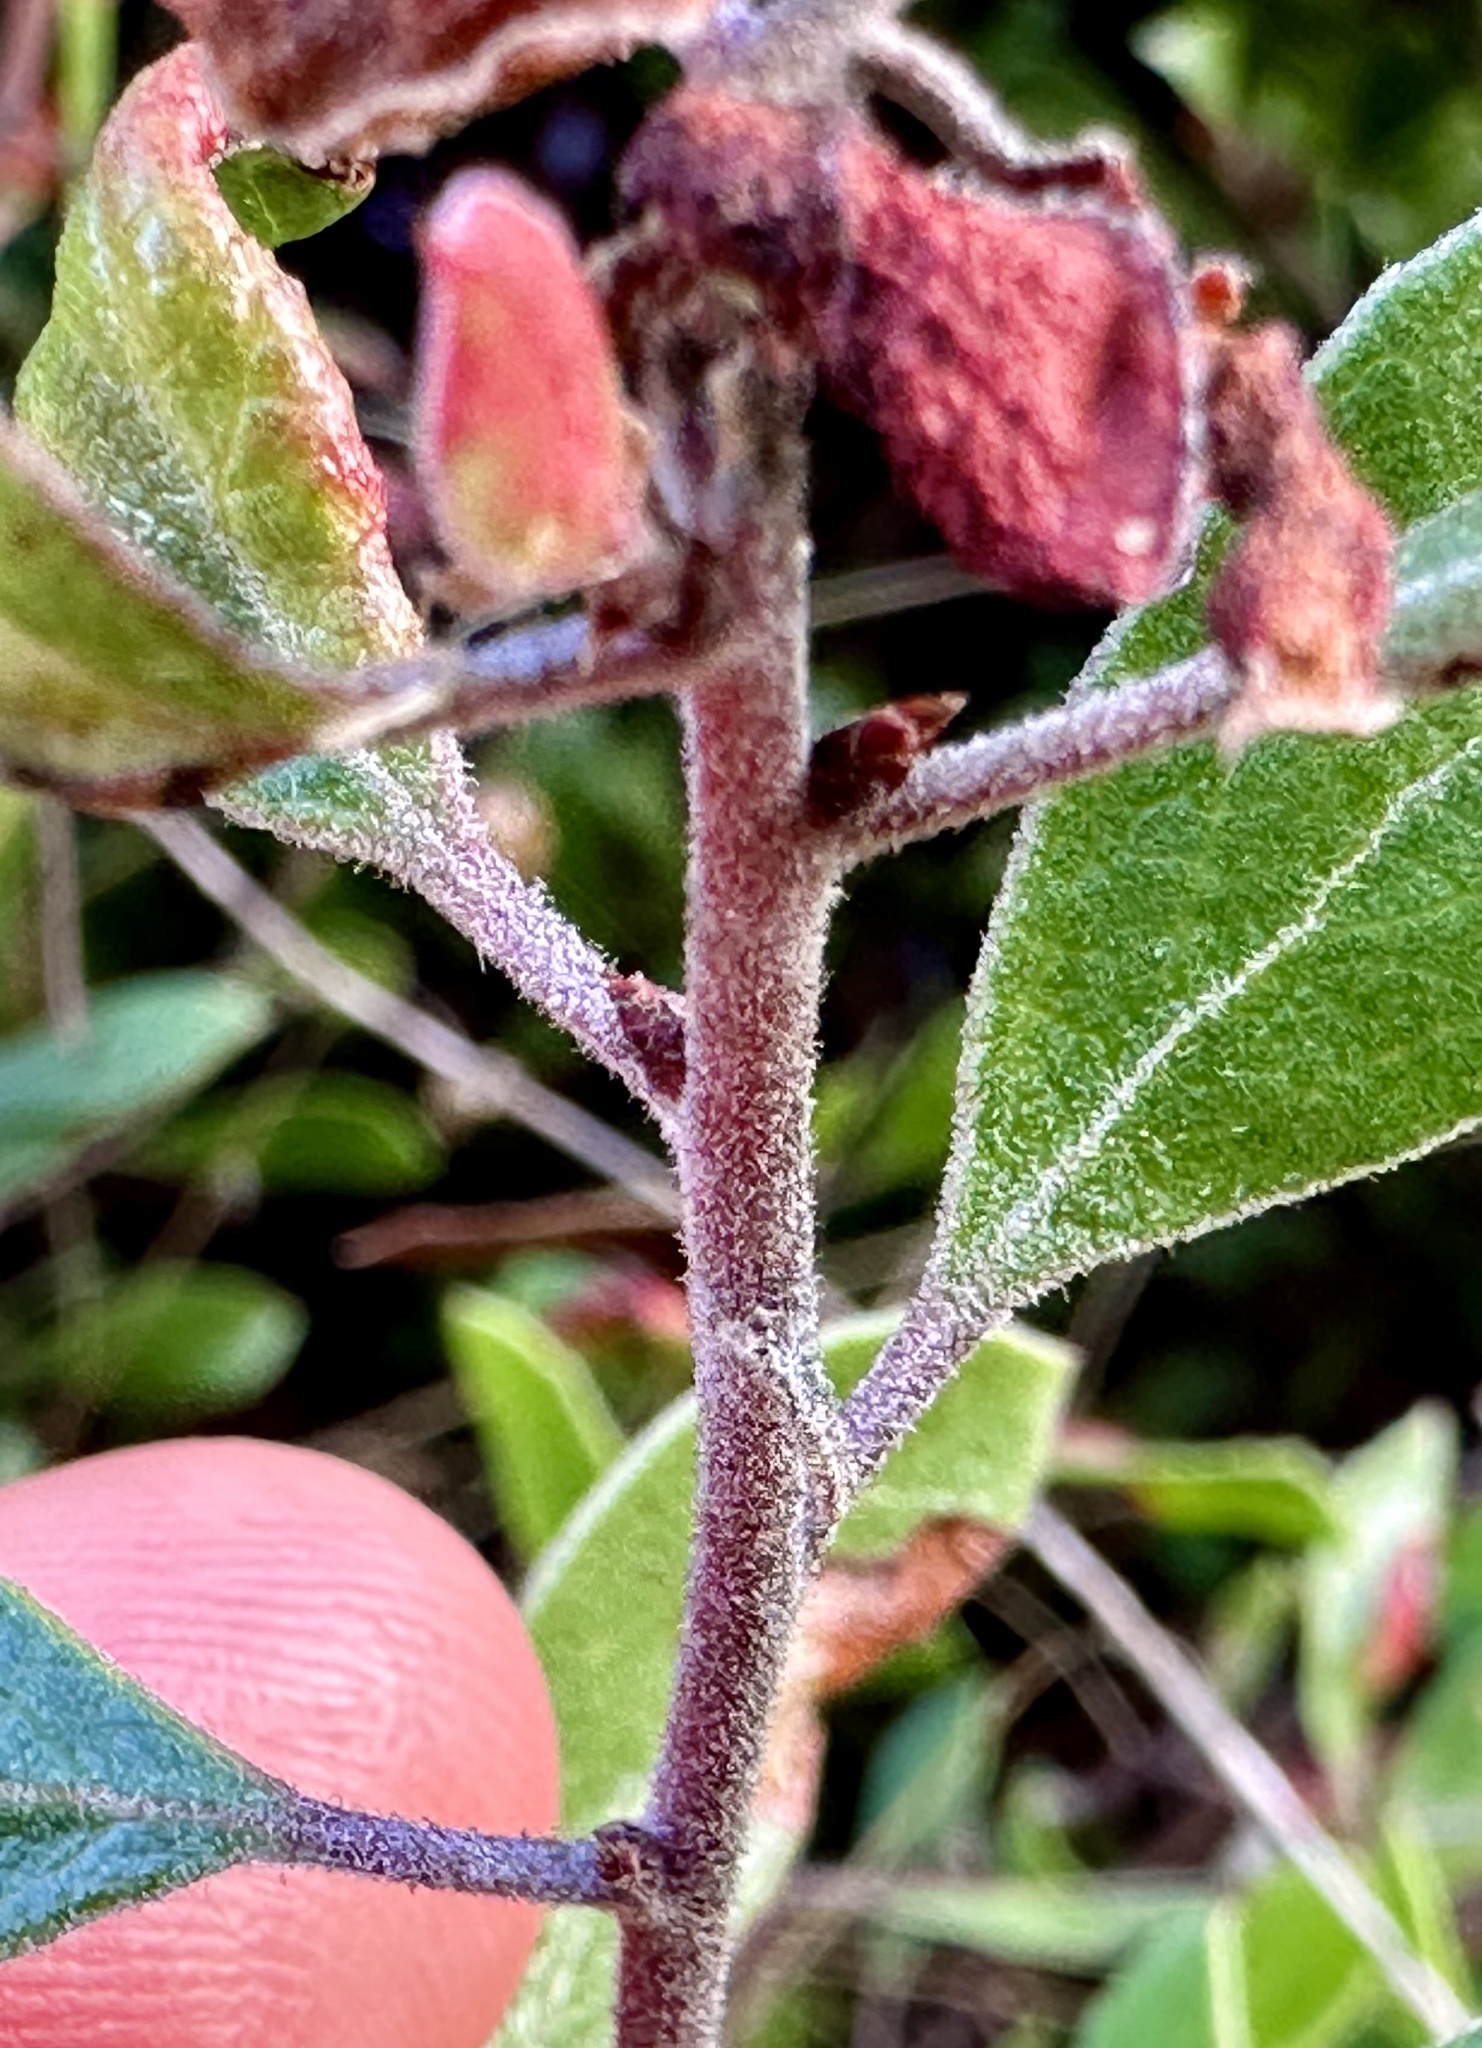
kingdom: Plantae
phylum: Tracheophyta
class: Magnoliopsida
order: Ericales
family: Ericaceae
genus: Arctostaphylos
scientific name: Arctostaphylos hookeri
